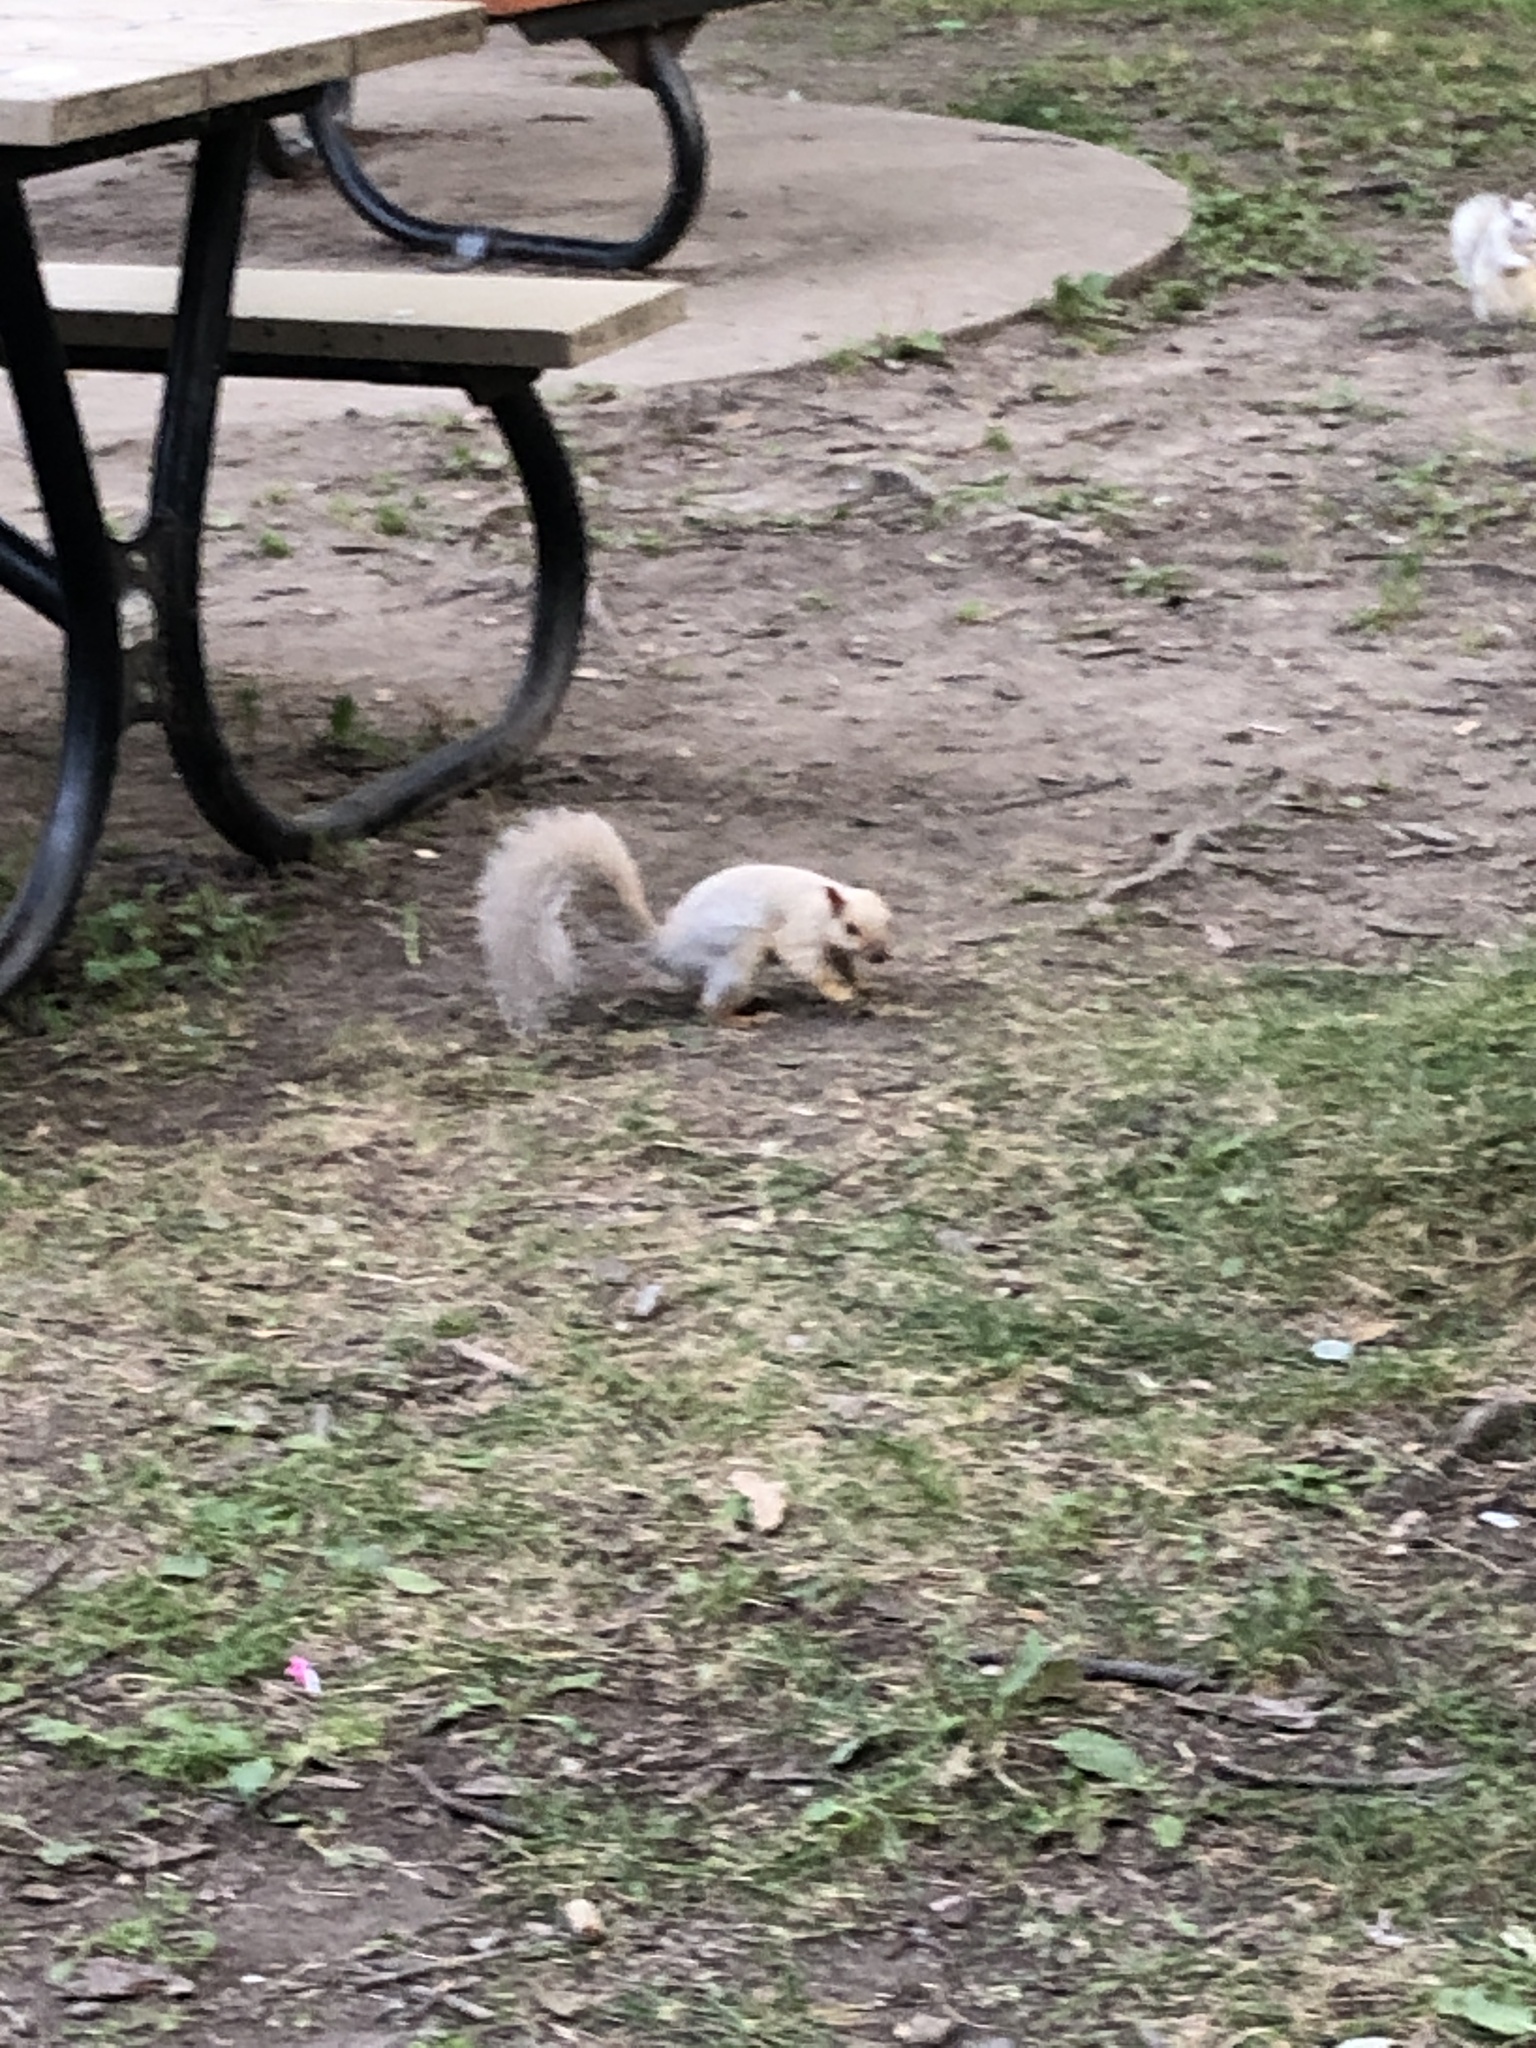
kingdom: Animalia
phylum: Chordata
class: Mammalia
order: Rodentia
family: Sciuridae
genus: Sciurus
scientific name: Sciurus carolinensis
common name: Eastern gray squirrel
